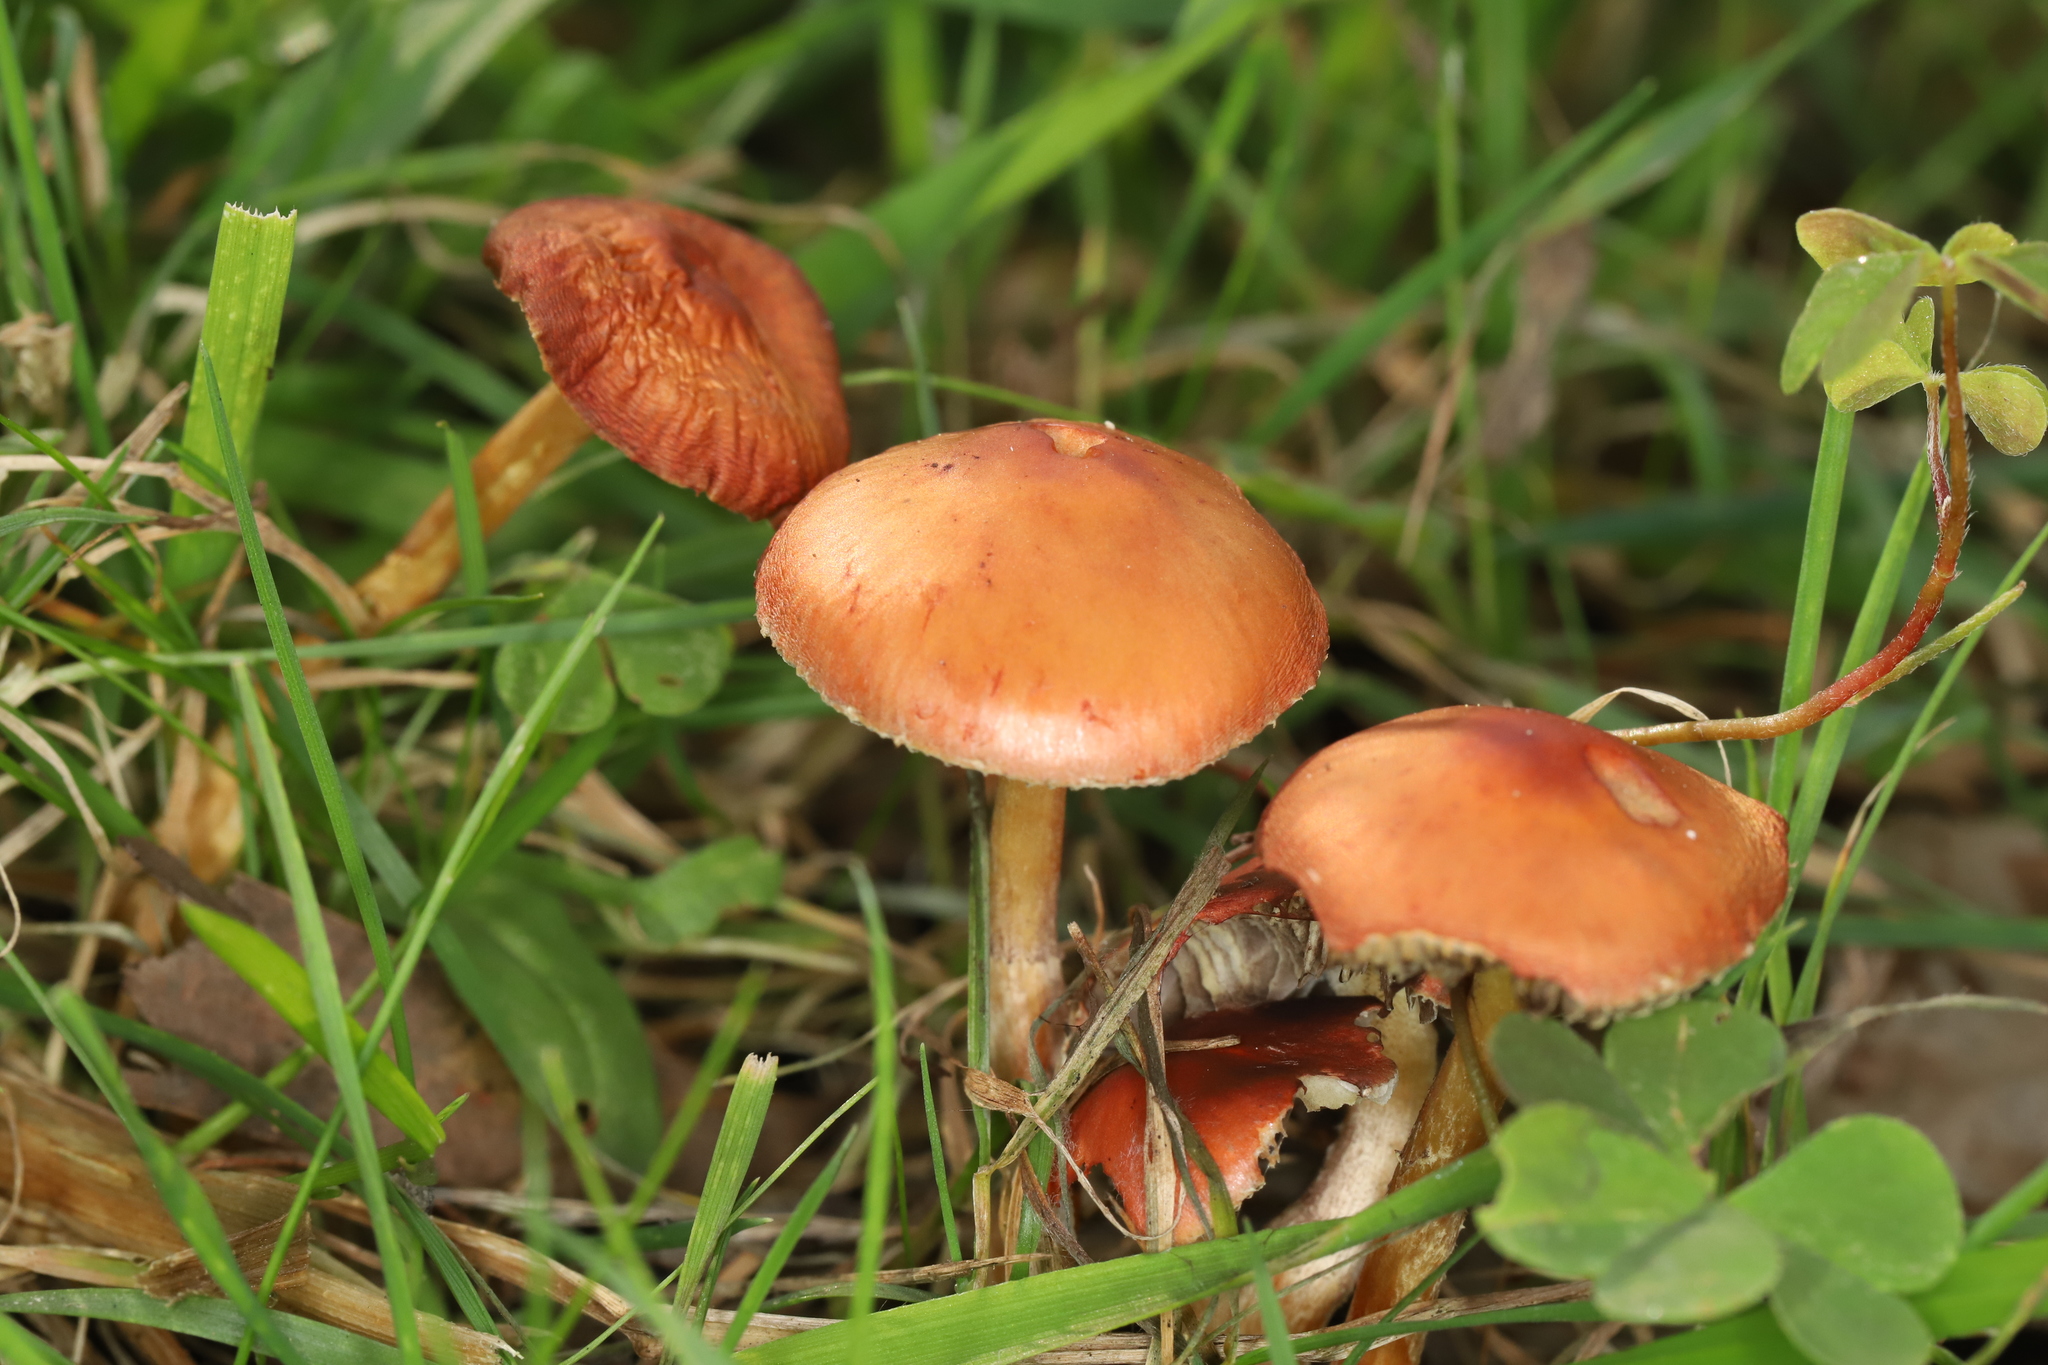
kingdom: Fungi
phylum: Basidiomycota
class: Agaricomycetes
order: Agaricales
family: Strophariaceae
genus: Leratiomyces
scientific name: Leratiomyces ceres
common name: Redlead roundhead
